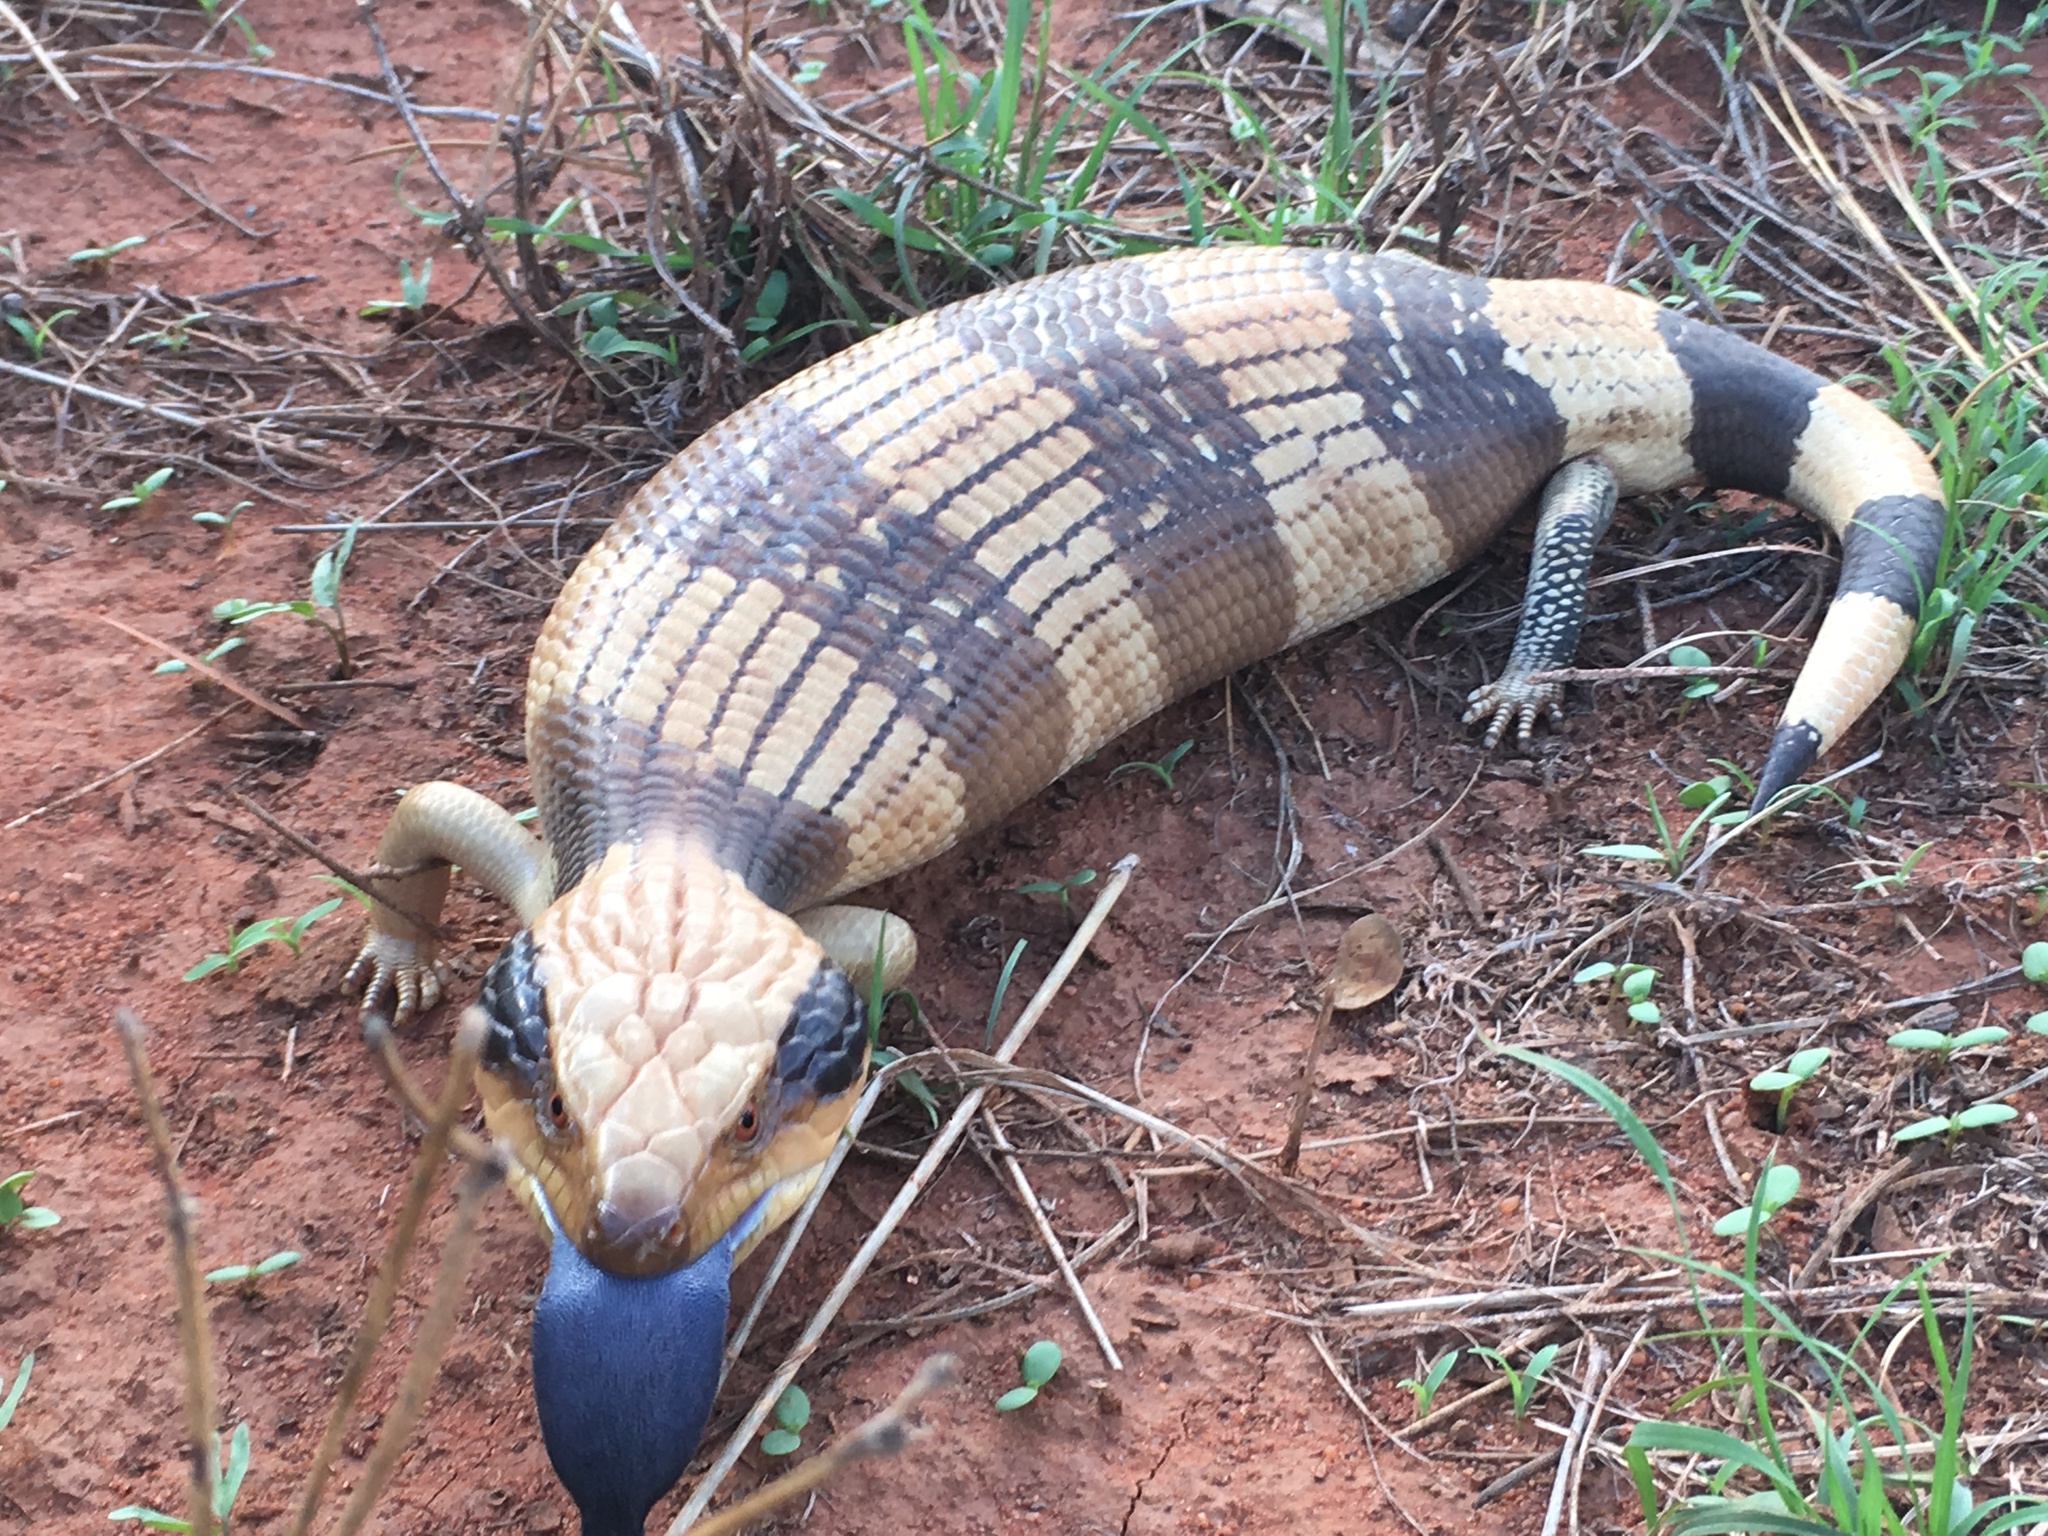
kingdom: Animalia
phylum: Chordata
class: Squamata
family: Scincidae
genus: Tiliqua
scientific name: Tiliqua occipitalis
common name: Western blue-tongued lizard
